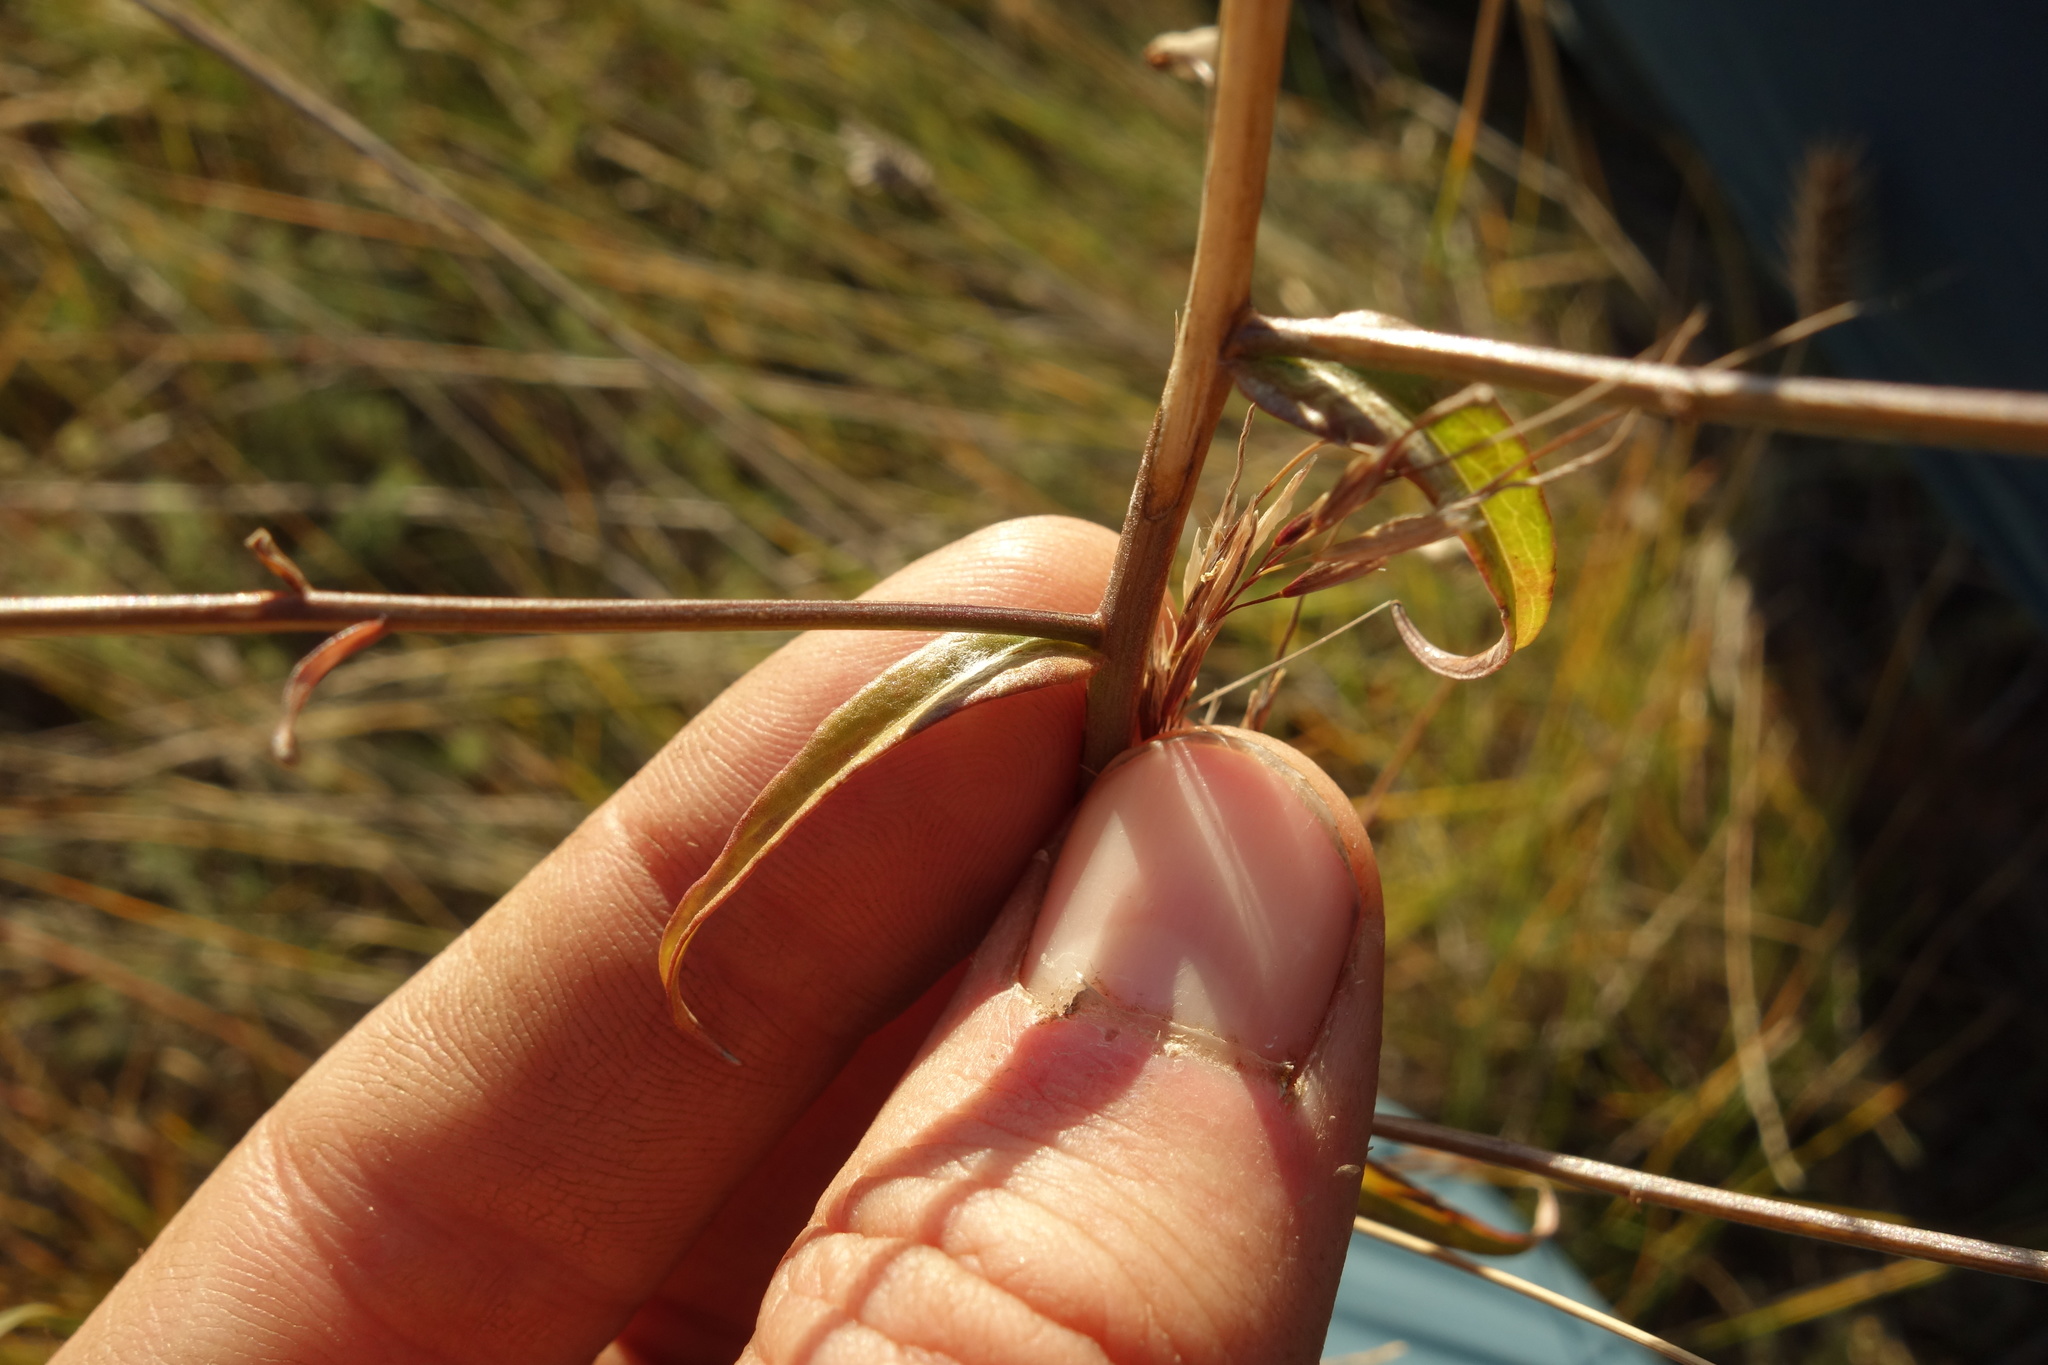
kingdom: Plantae
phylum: Tracheophyta
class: Magnoliopsida
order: Asterales
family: Campanulaceae
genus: Adenophora
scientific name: Adenophora stenanthina
